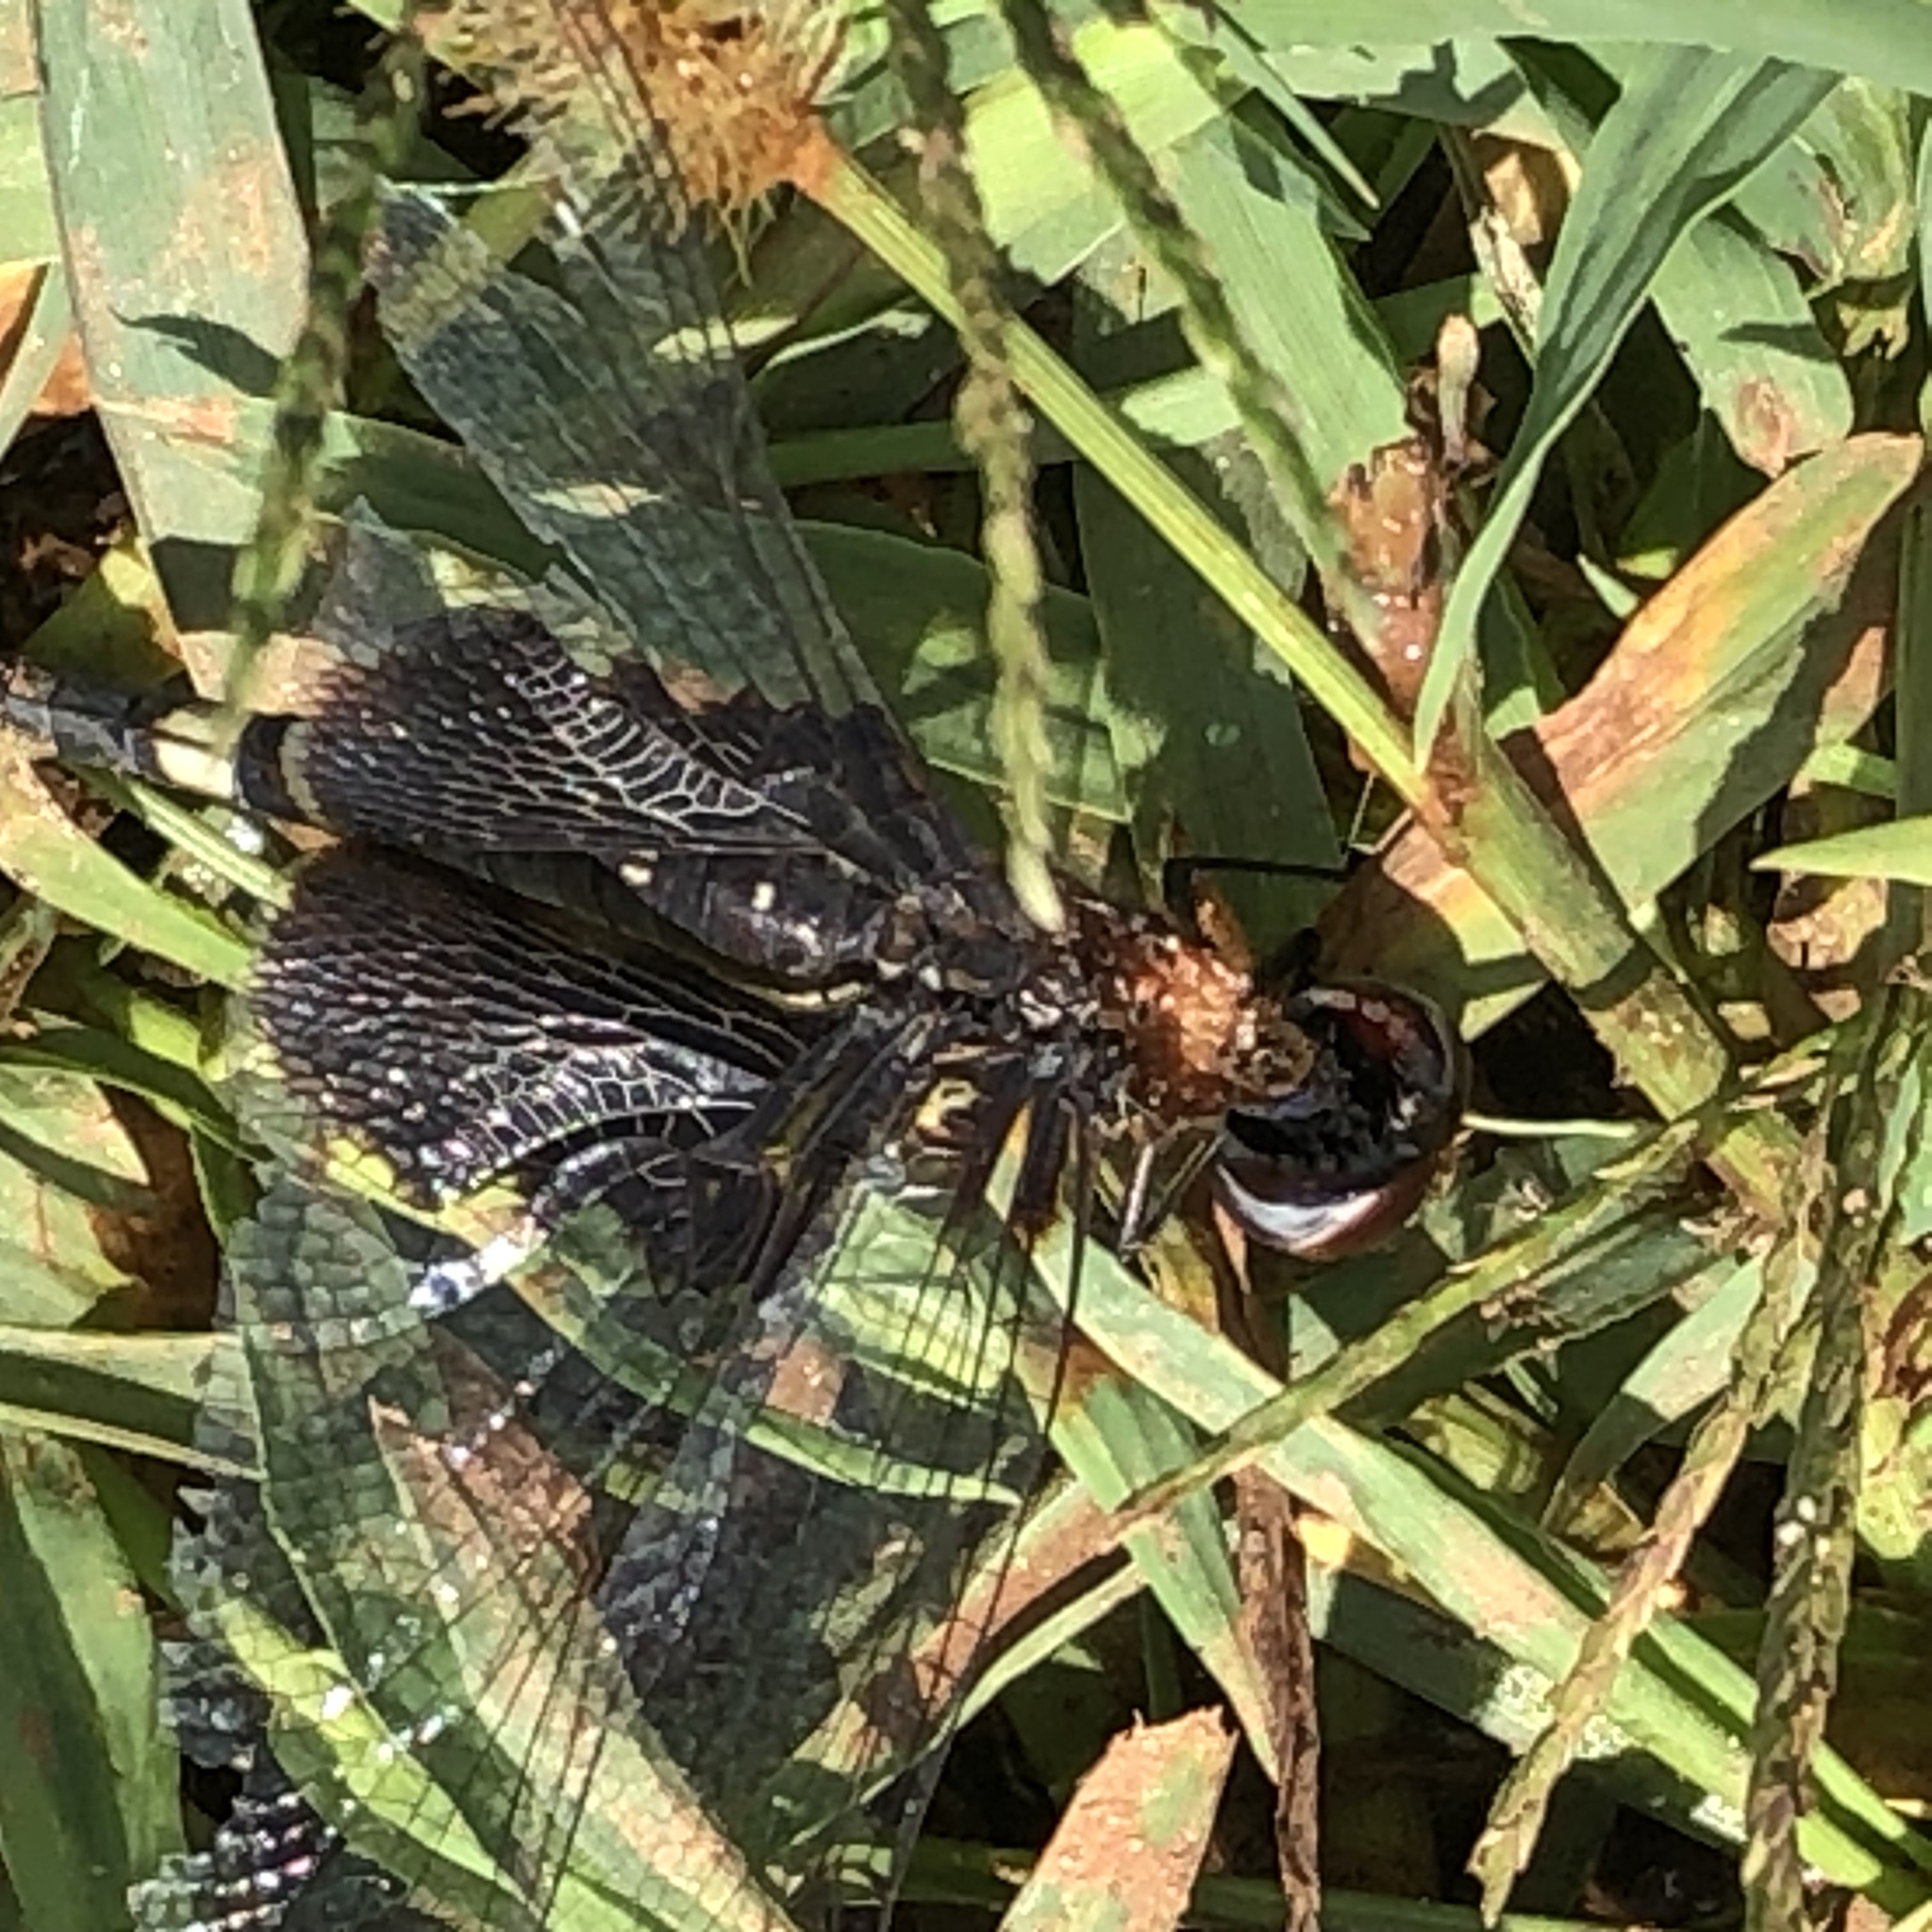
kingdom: Animalia
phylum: Arthropoda
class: Insecta
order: Odonata
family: Libellulidae
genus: Tramea
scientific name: Tramea lacerata
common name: Black saddlebags
